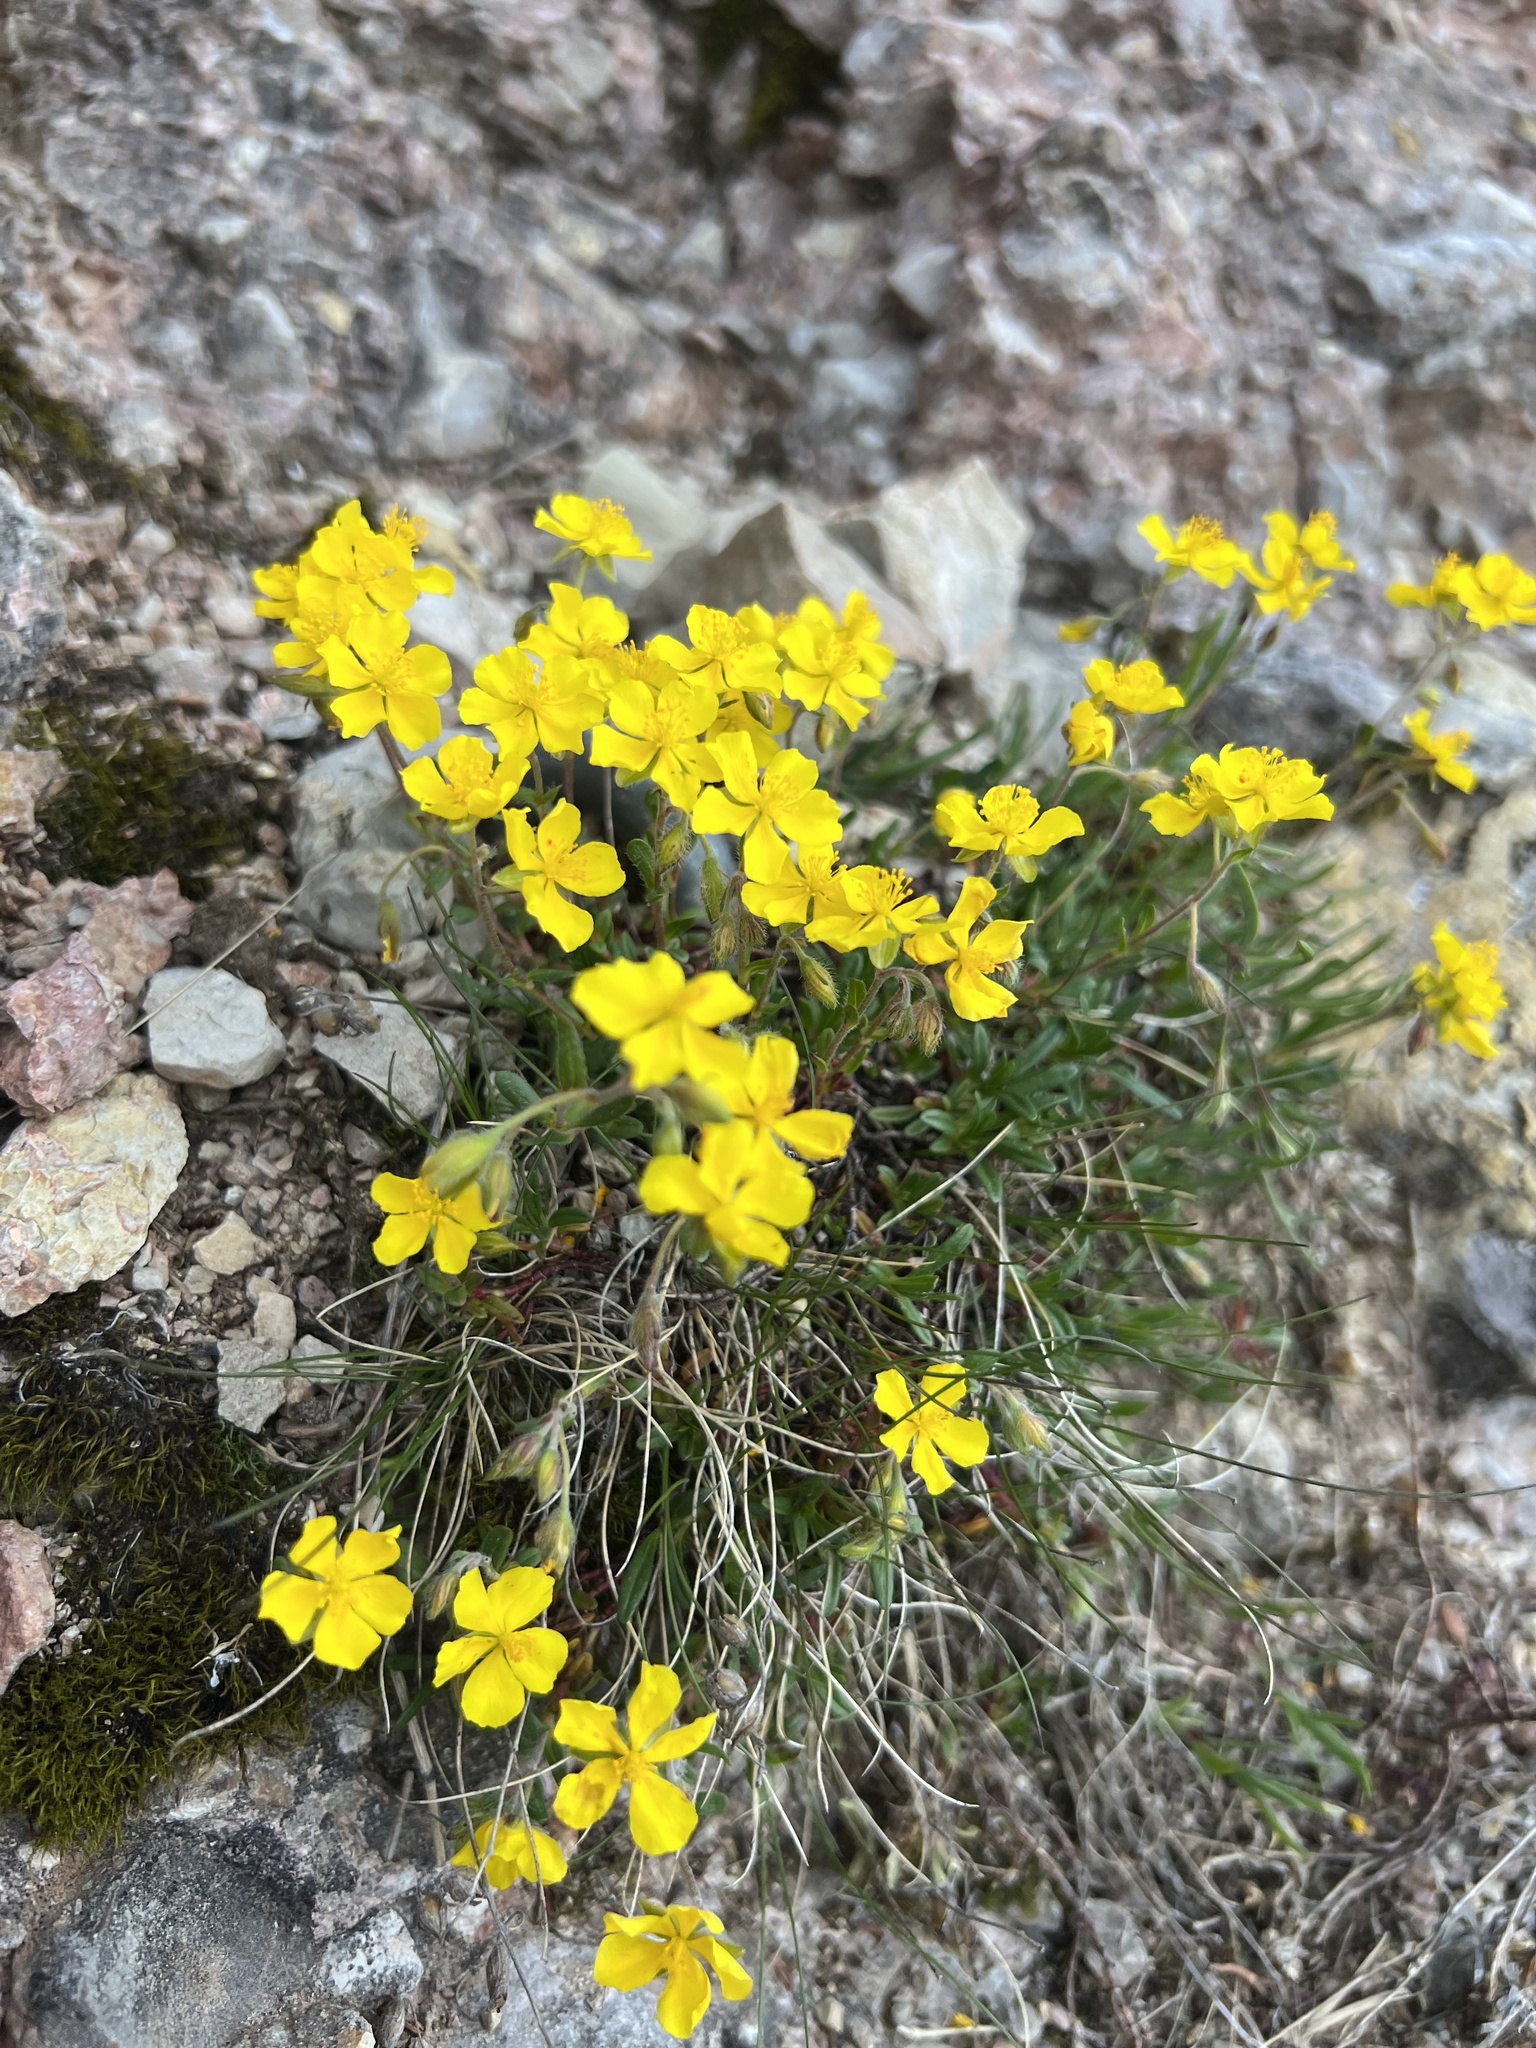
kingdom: Plantae
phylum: Tracheophyta
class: Magnoliopsida
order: Malvales
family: Cistaceae
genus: Helianthemum
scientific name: Helianthemum alpestre
